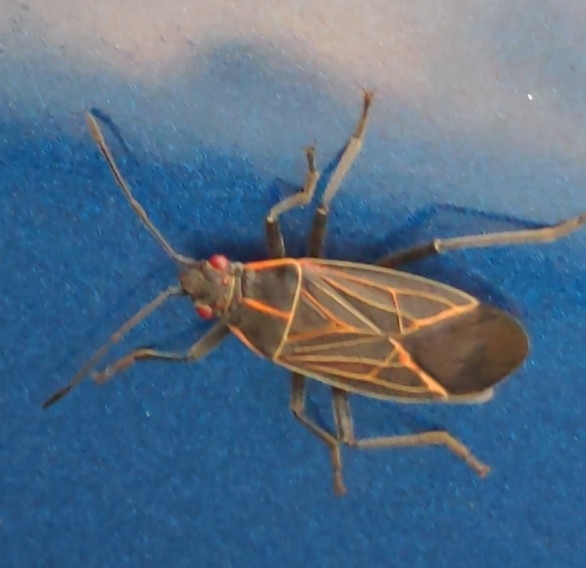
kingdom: Animalia
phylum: Arthropoda
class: Insecta
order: Hemiptera
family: Rhopalidae
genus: Boisea
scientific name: Boisea rubrolineata
